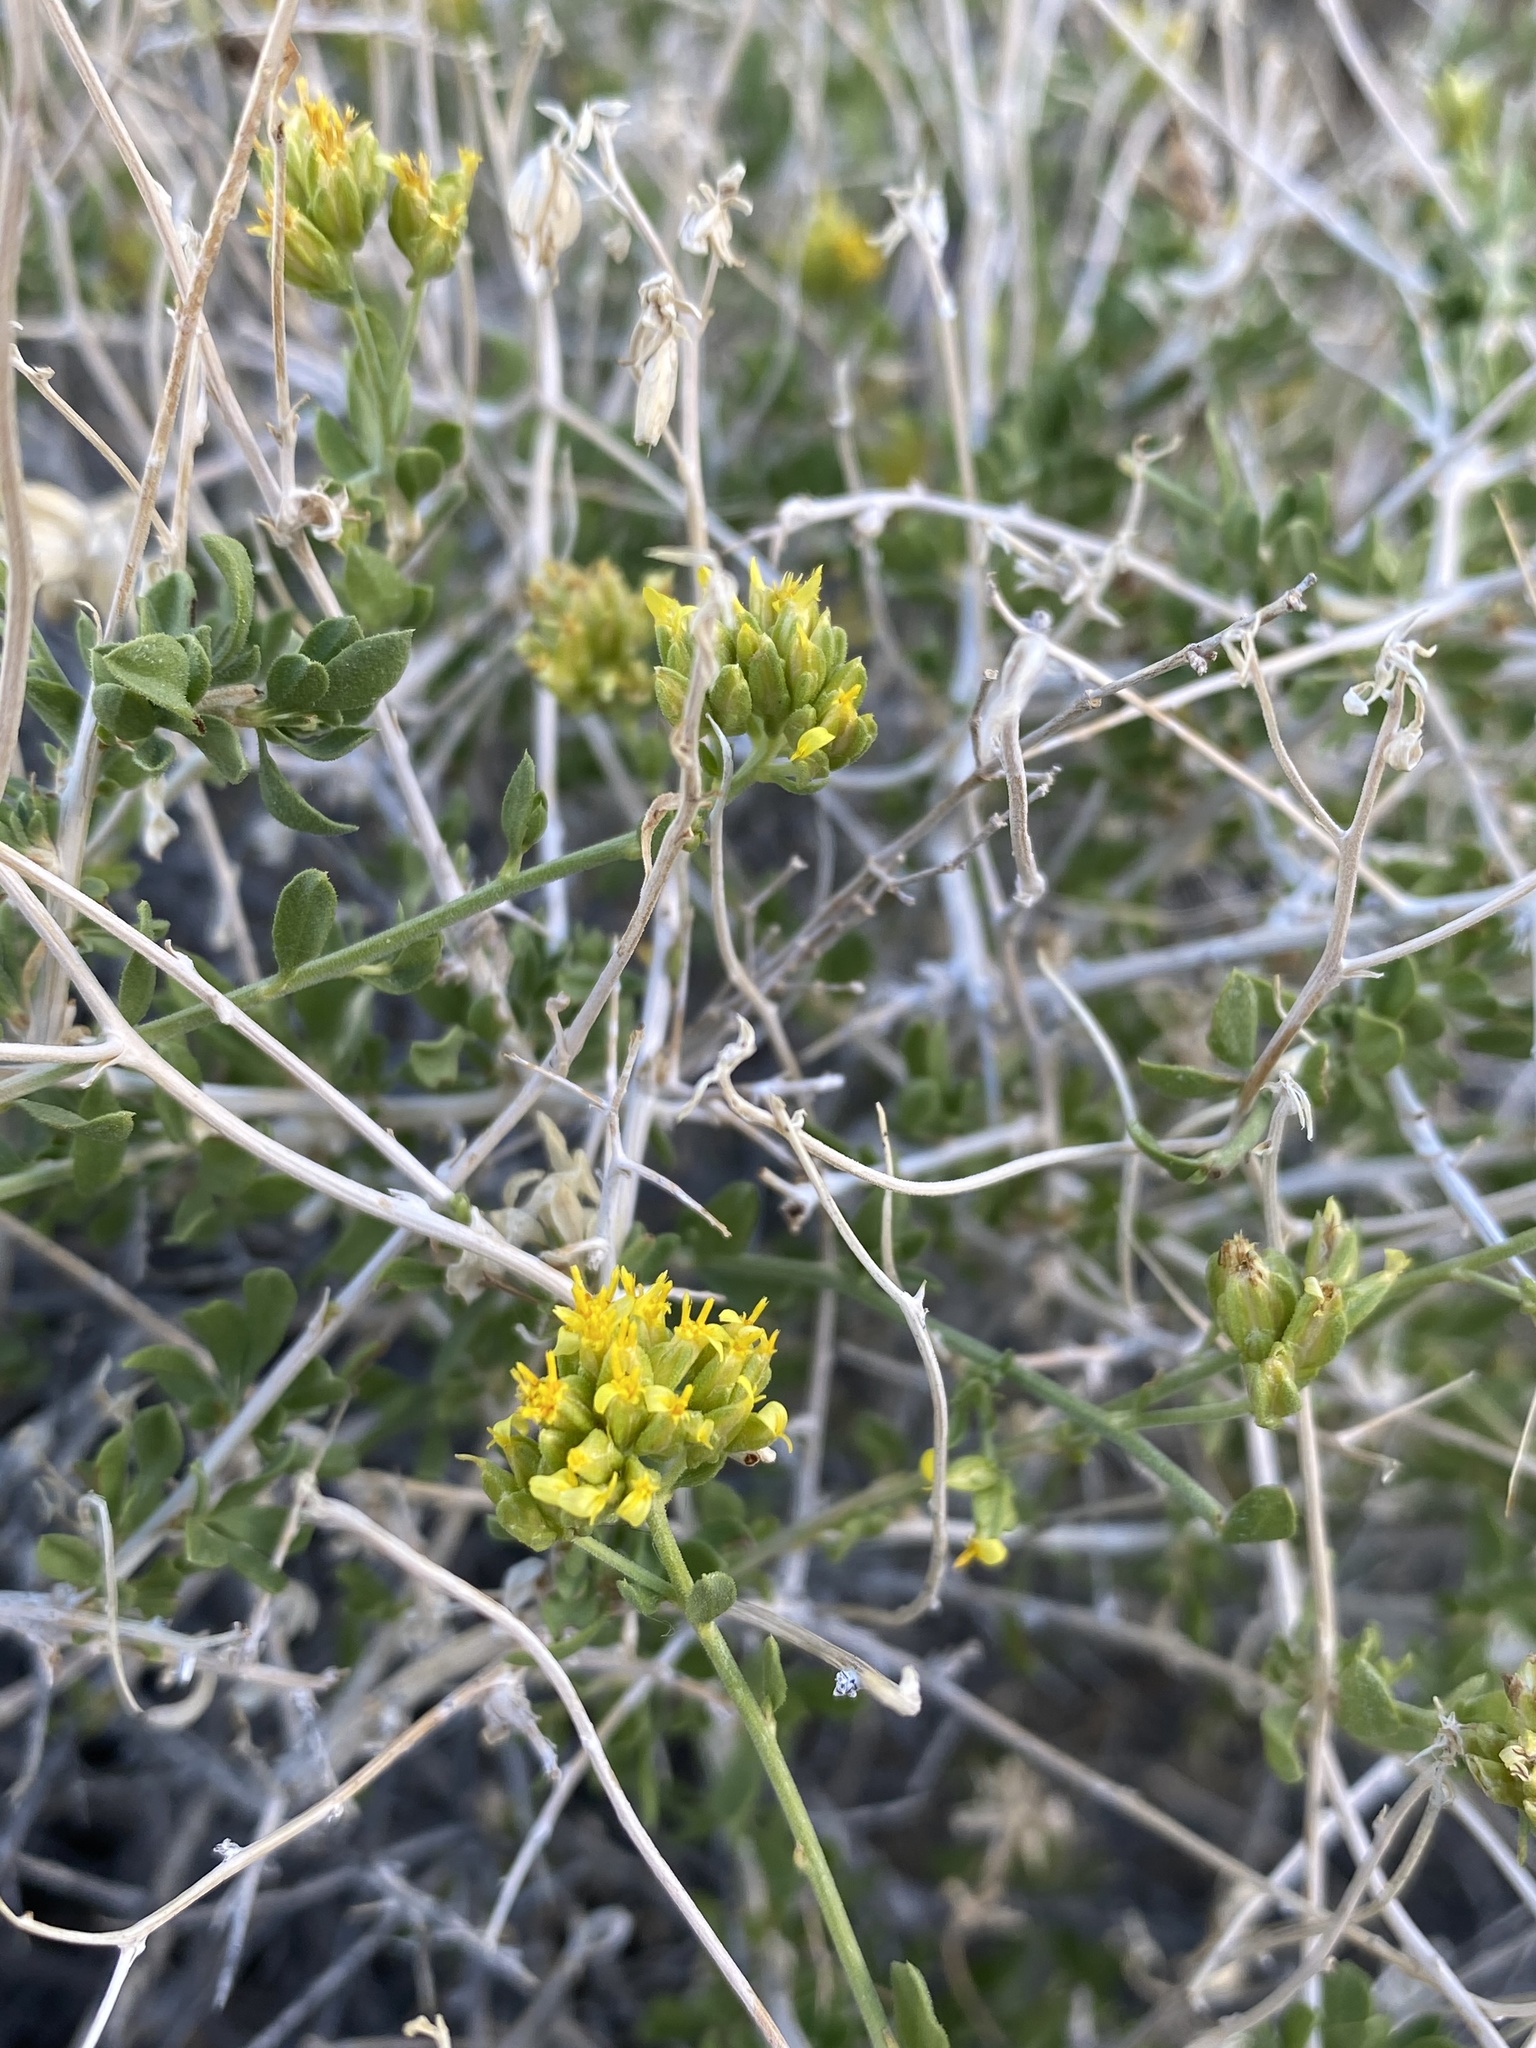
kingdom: Plantae
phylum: Tracheophyta
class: Magnoliopsida
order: Asterales
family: Asteraceae
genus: Amphipappus
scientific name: Amphipappus fremontii
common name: Fremont's chaffbush
